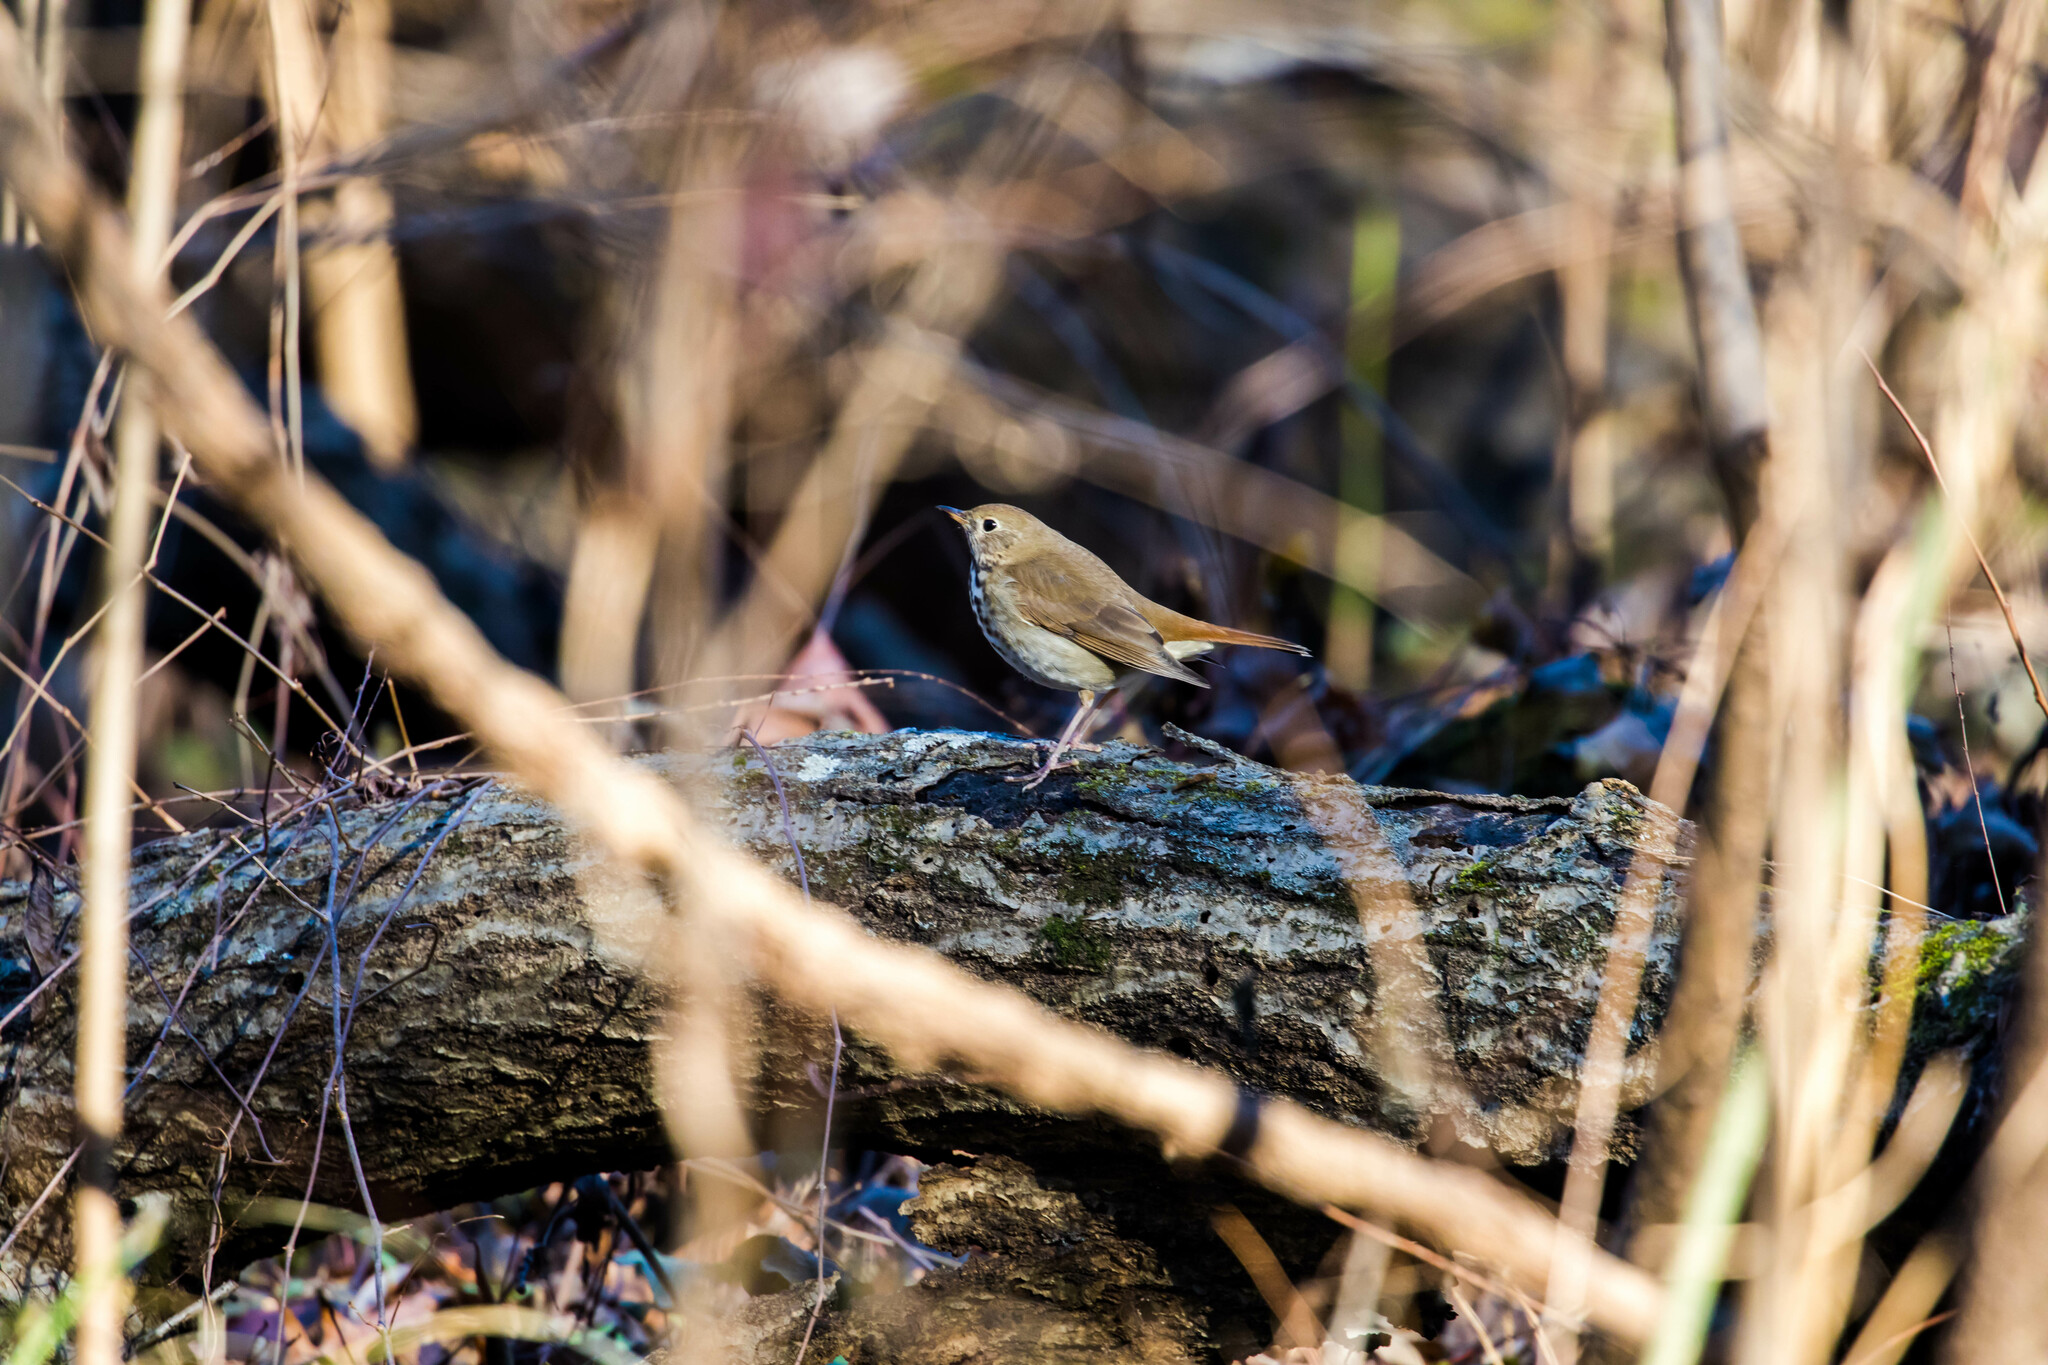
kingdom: Animalia
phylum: Chordata
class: Aves
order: Passeriformes
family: Turdidae
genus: Catharus
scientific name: Catharus guttatus
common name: Hermit thrush
